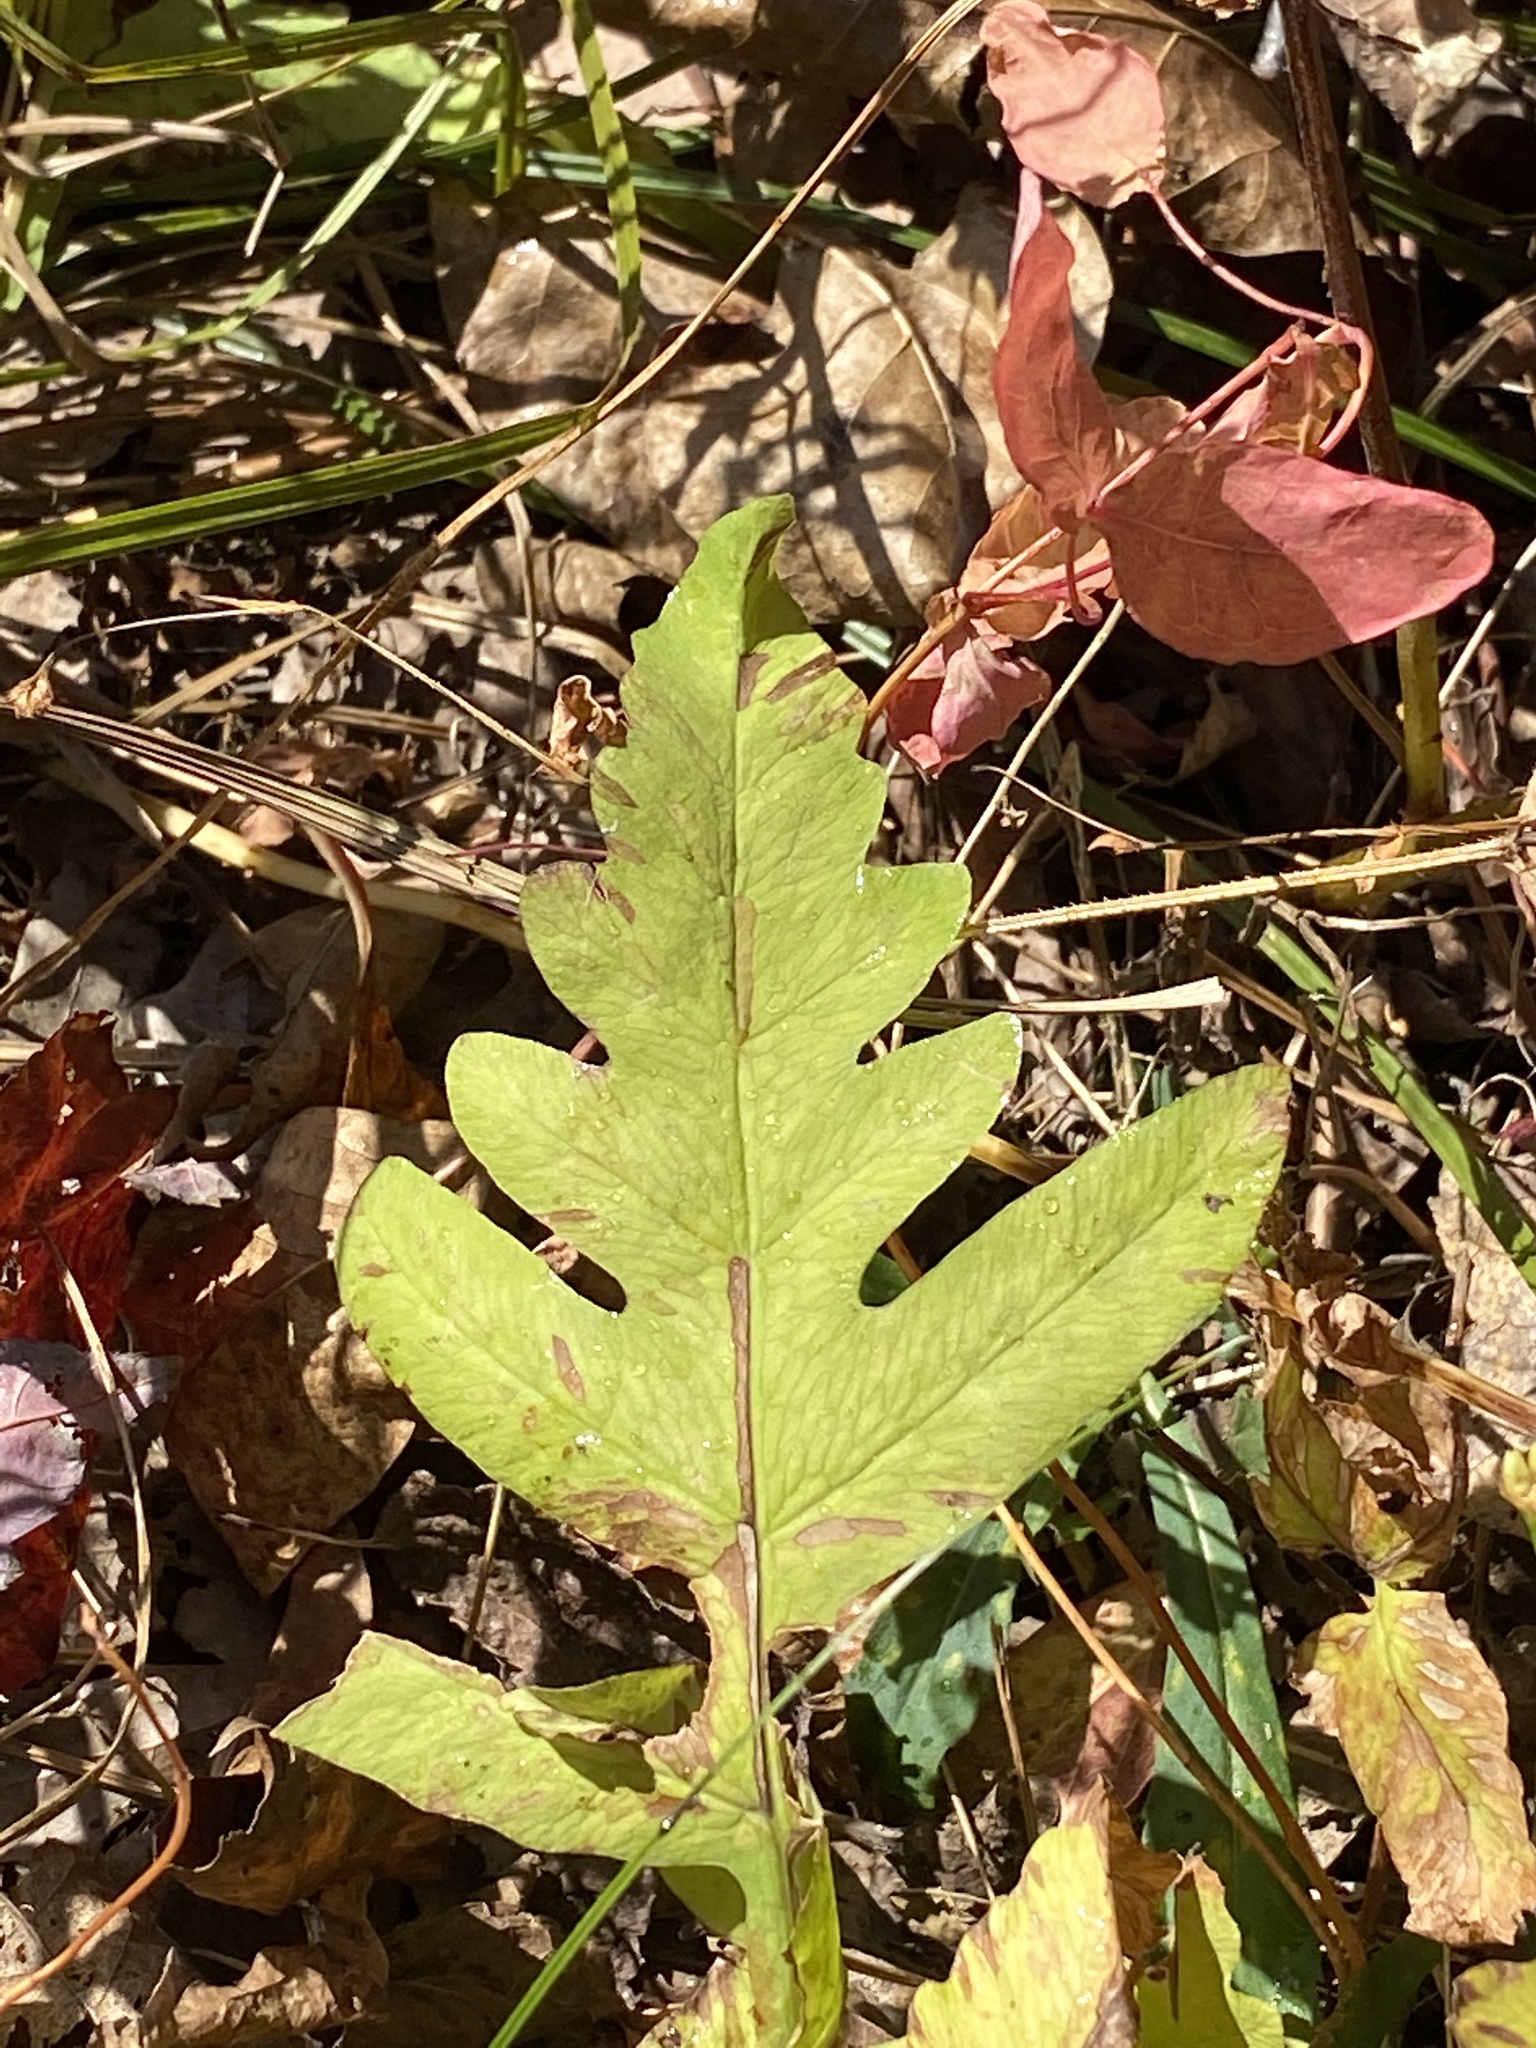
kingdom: Plantae
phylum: Tracheophyta
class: Polypodiopsida
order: Polypodiales
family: Onocleaceae
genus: Onoclea
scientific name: Onoclea sensibilis
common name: Sensitive fern
